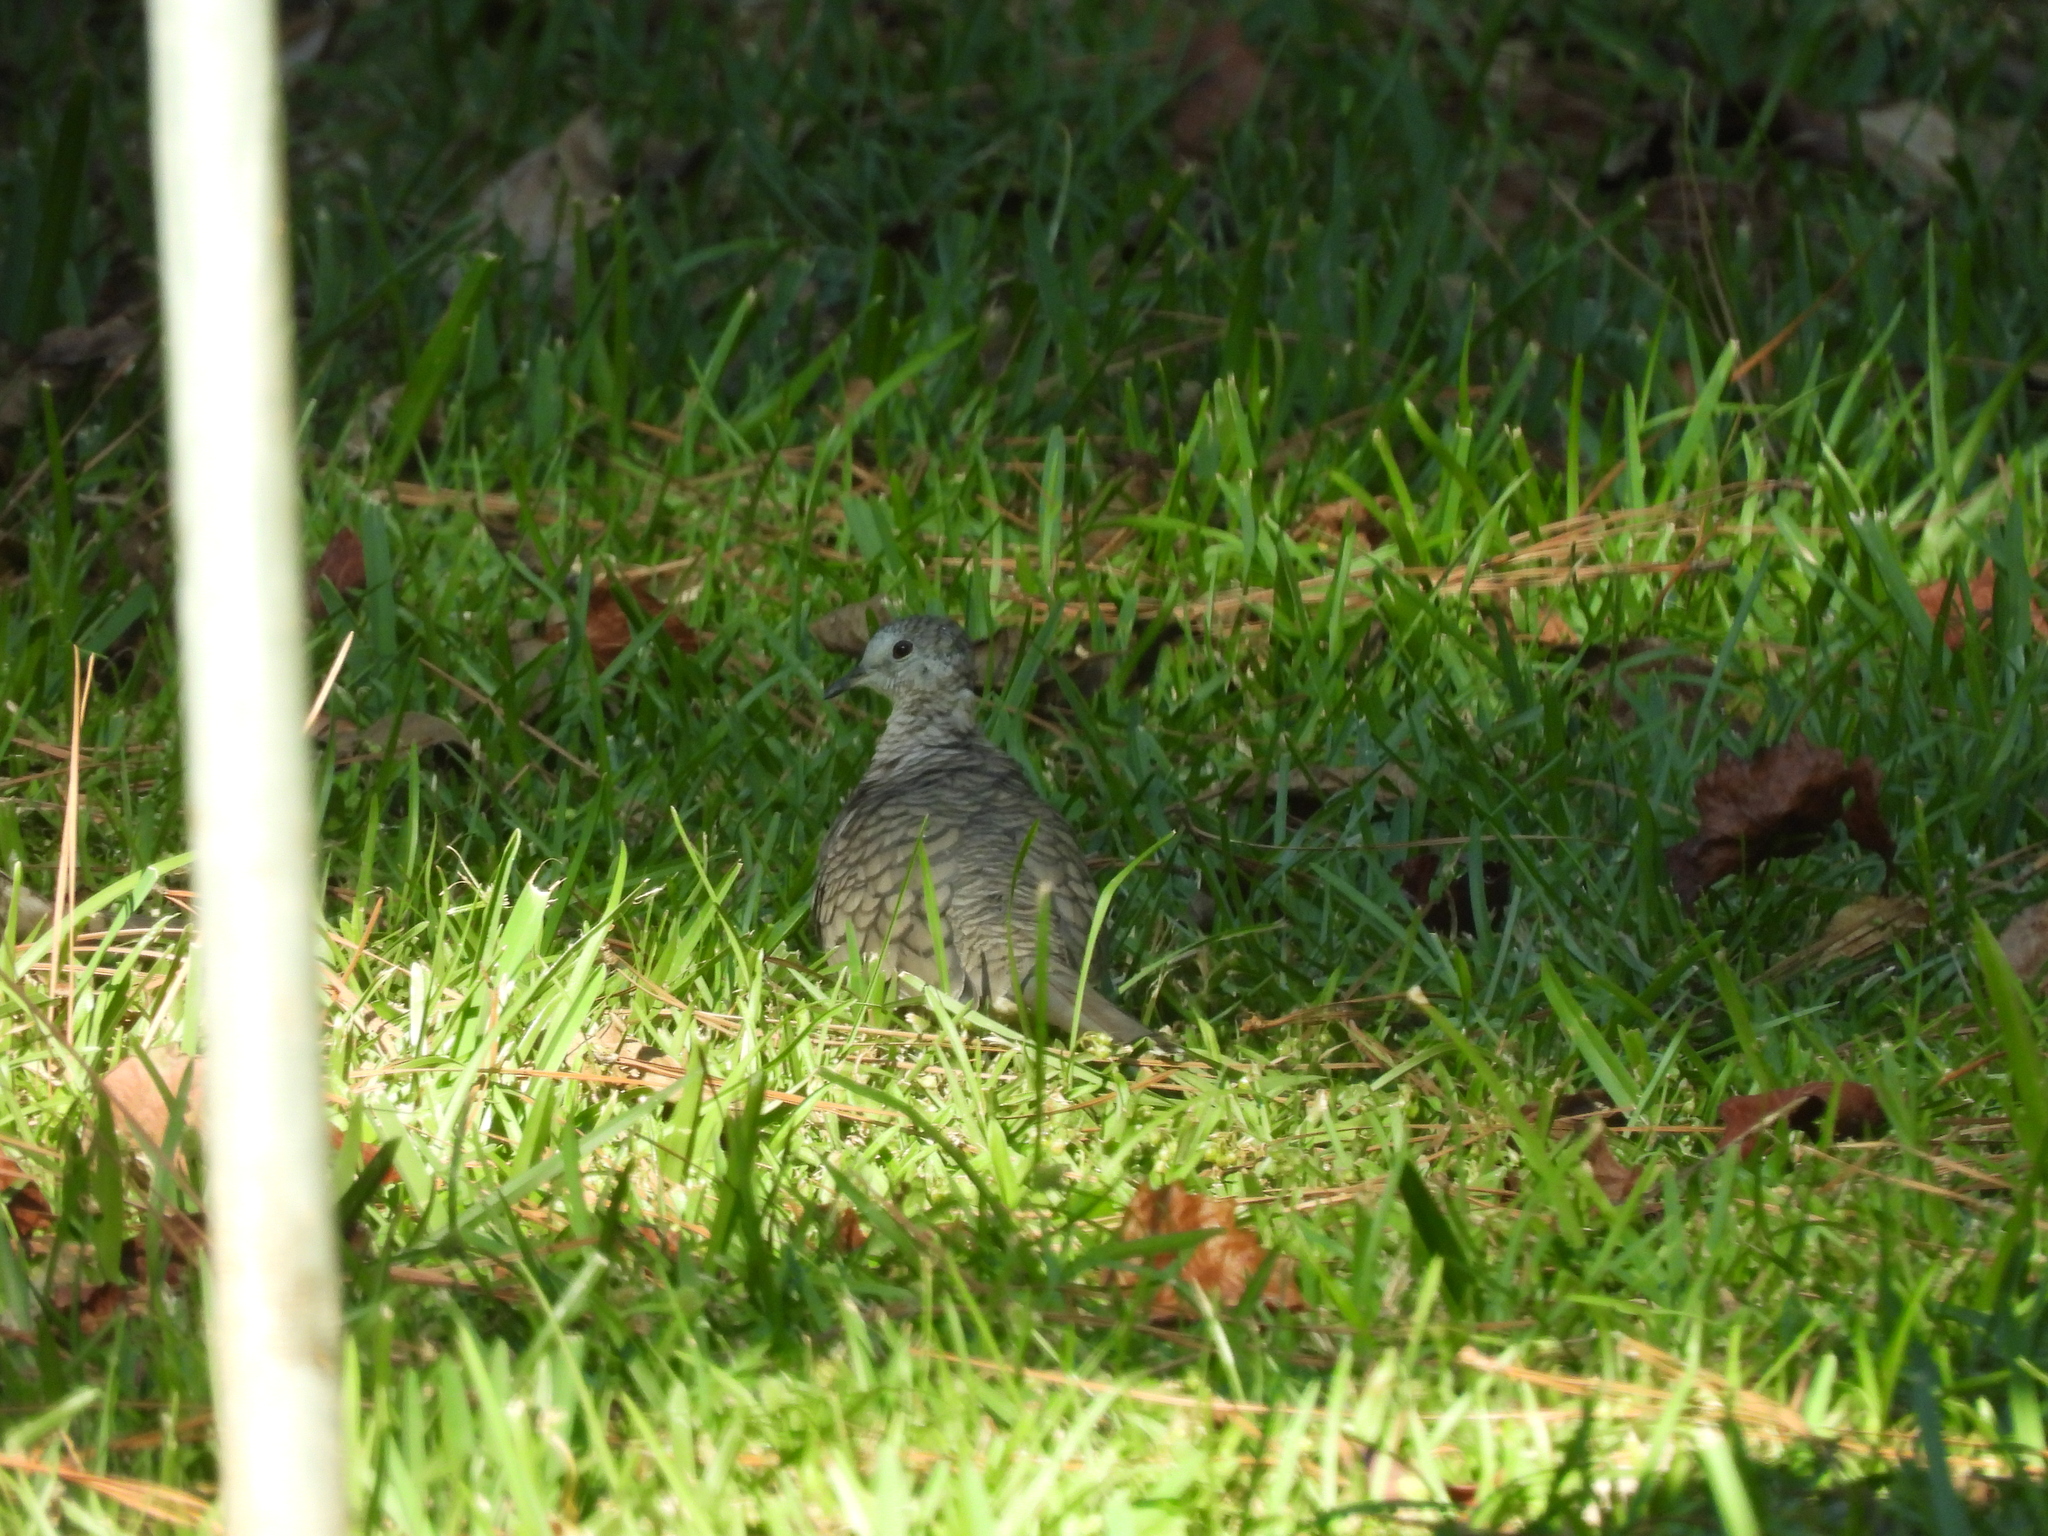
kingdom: Animalia
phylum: Chordata
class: Aves
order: Columbiformes
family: Columbidae
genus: Columbina
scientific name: Columbina inca
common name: Inca dove
